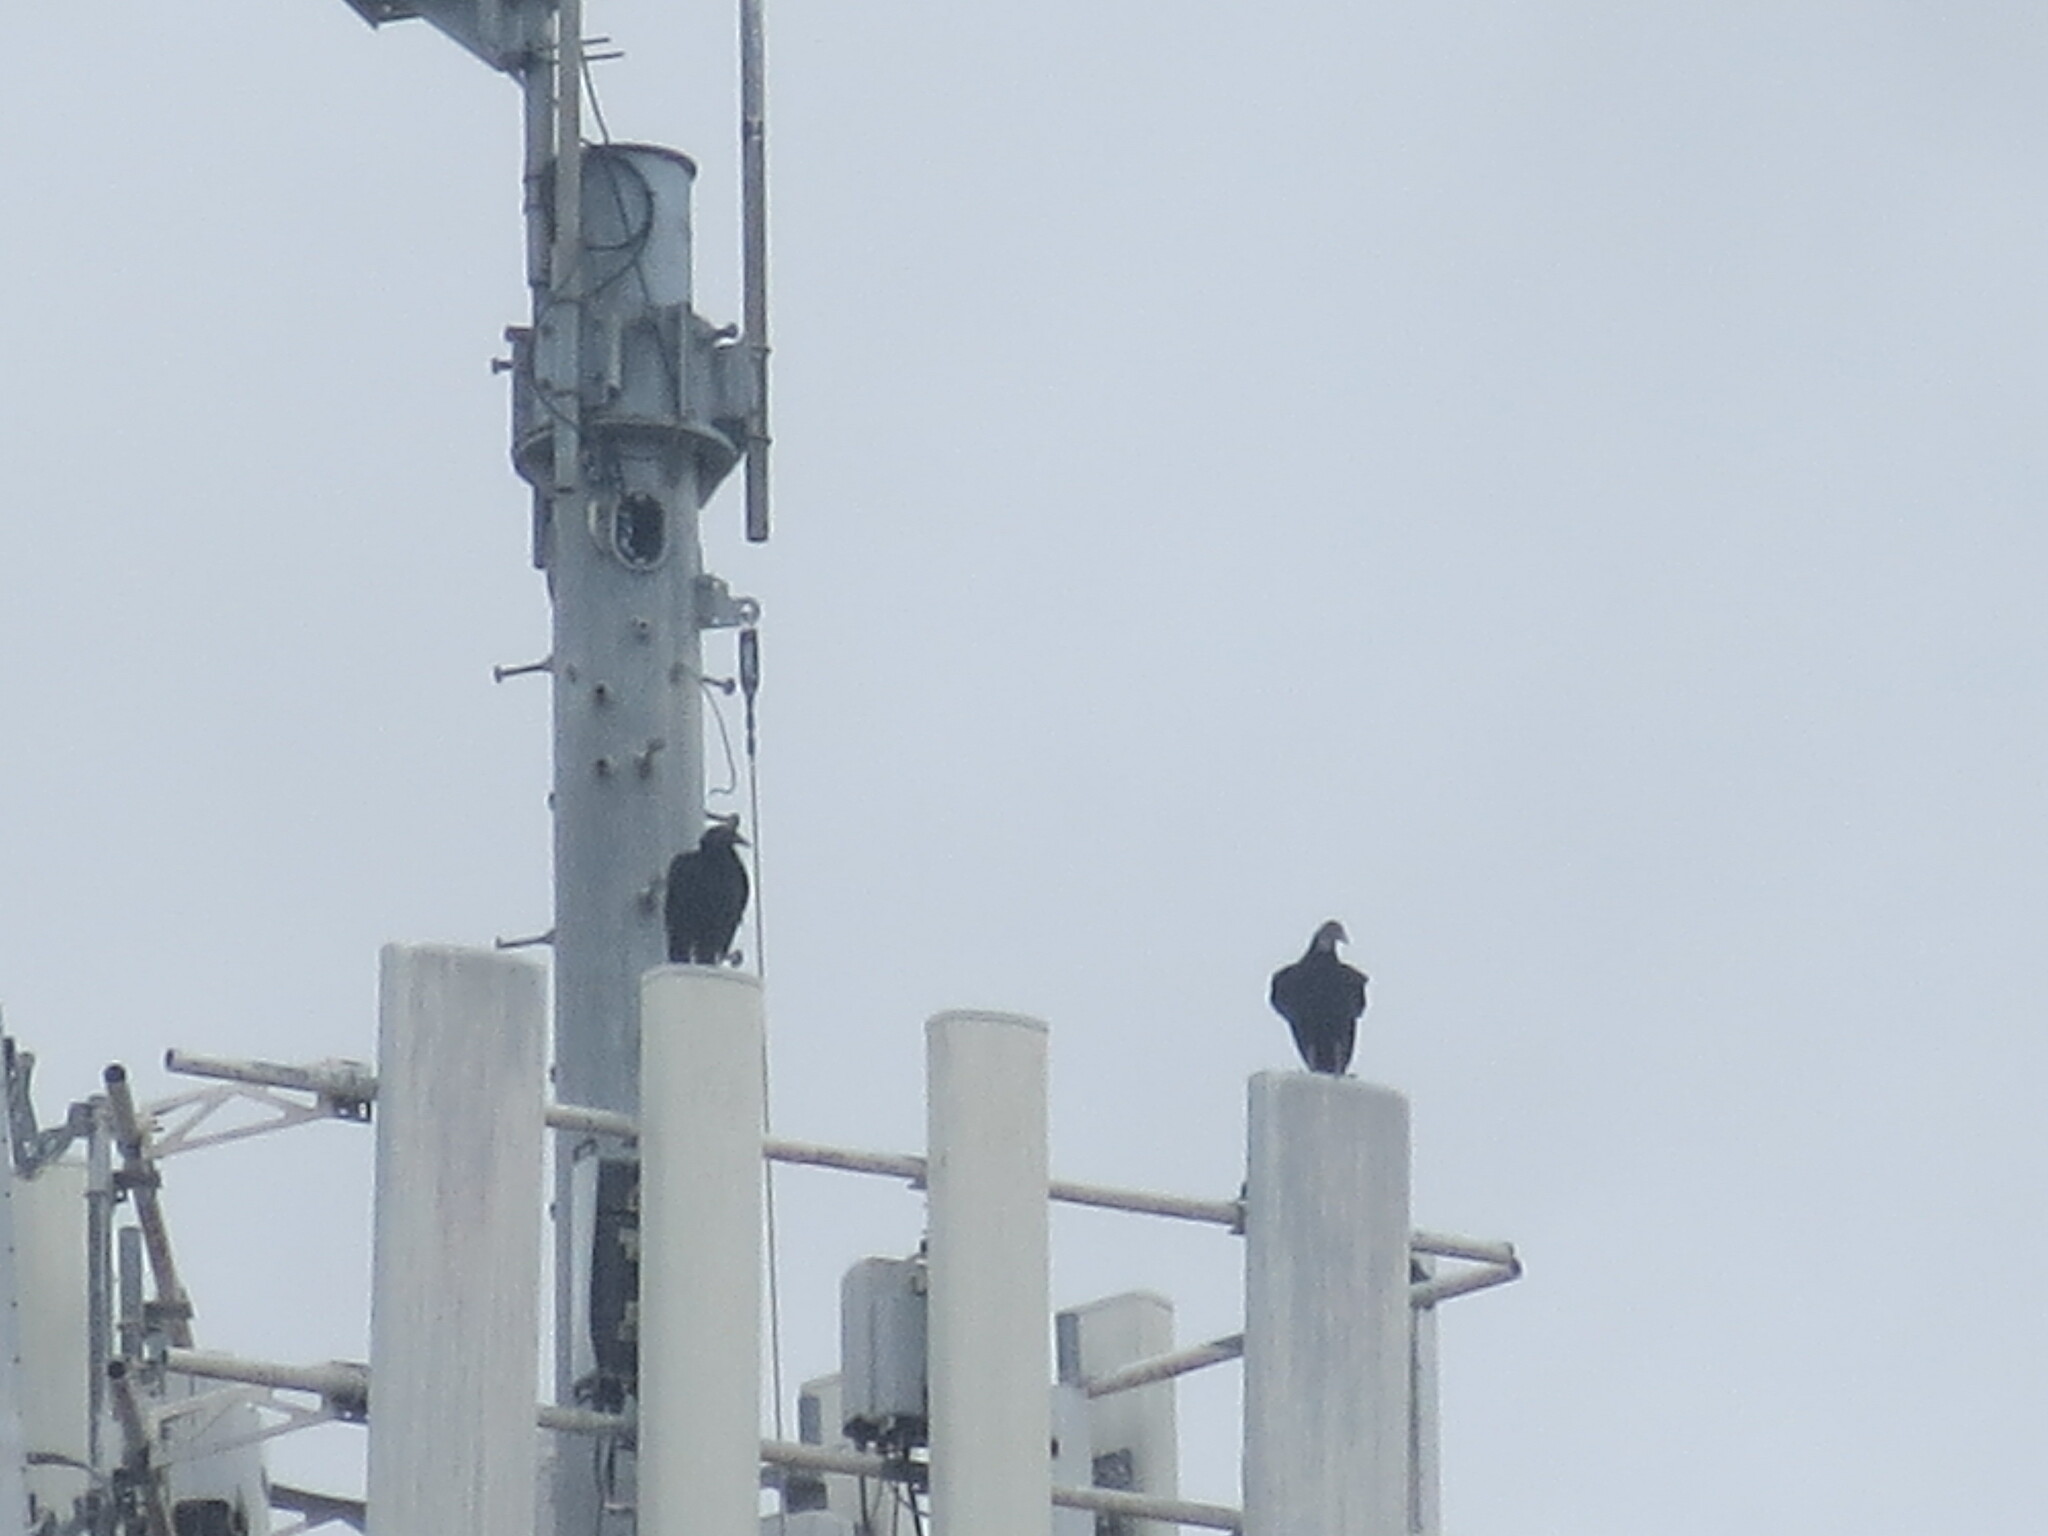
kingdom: Animalia
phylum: Chordata
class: Aves
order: Accipitriformes
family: Cathartidae
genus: Coragyps
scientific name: Coragyps atratus
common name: Black vulture
